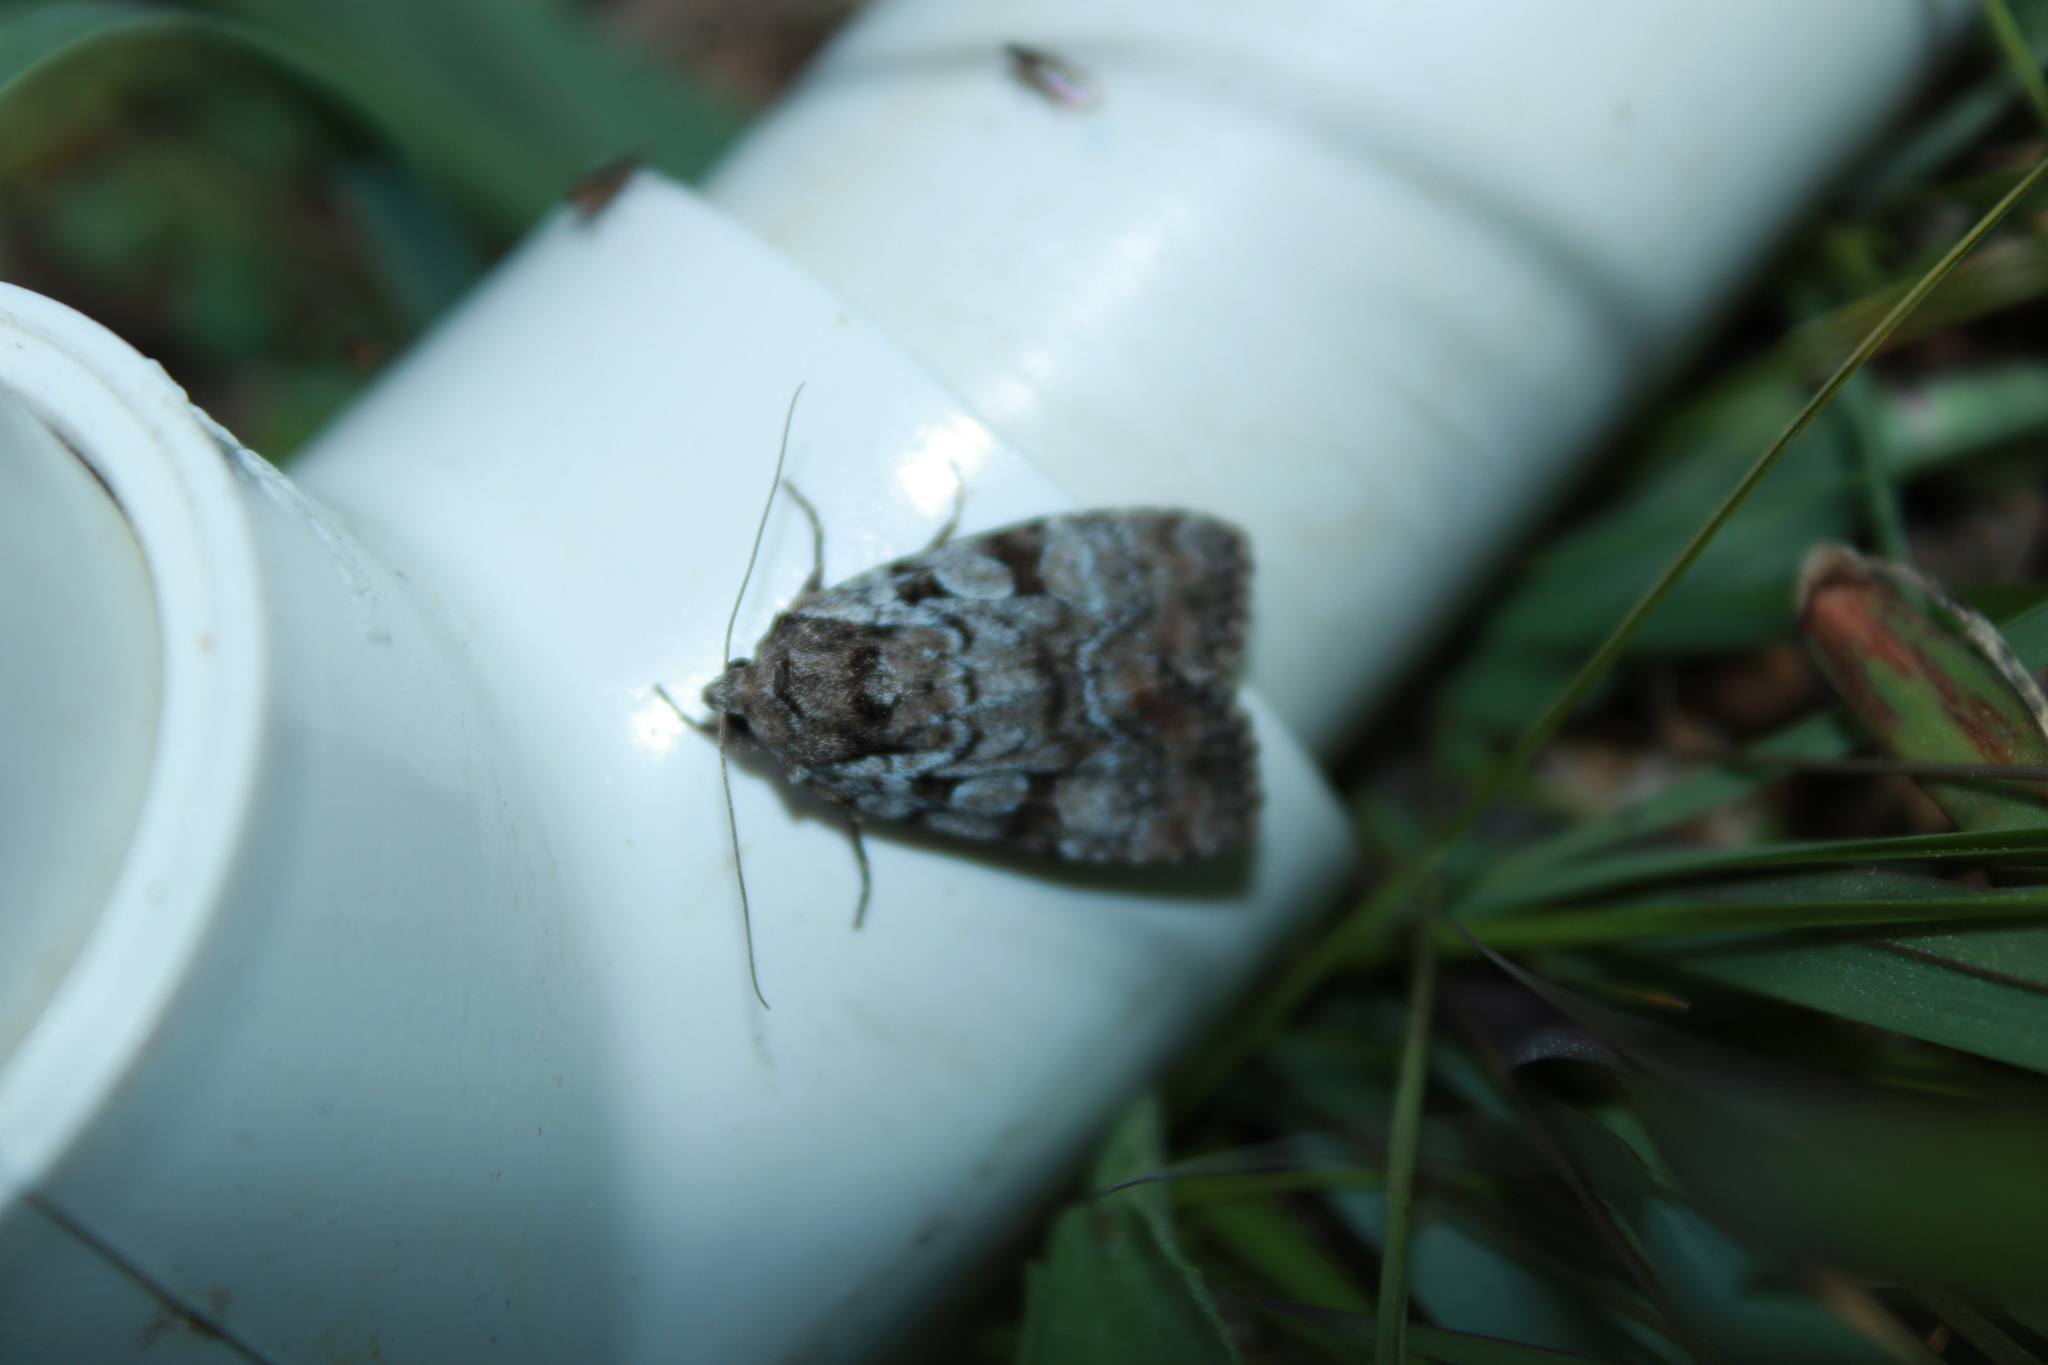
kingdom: Animalia
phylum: Arthropoda
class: Insecta
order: Lepidoptera
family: Noctuidae
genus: Aplectoides
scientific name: Aplectoides condita
